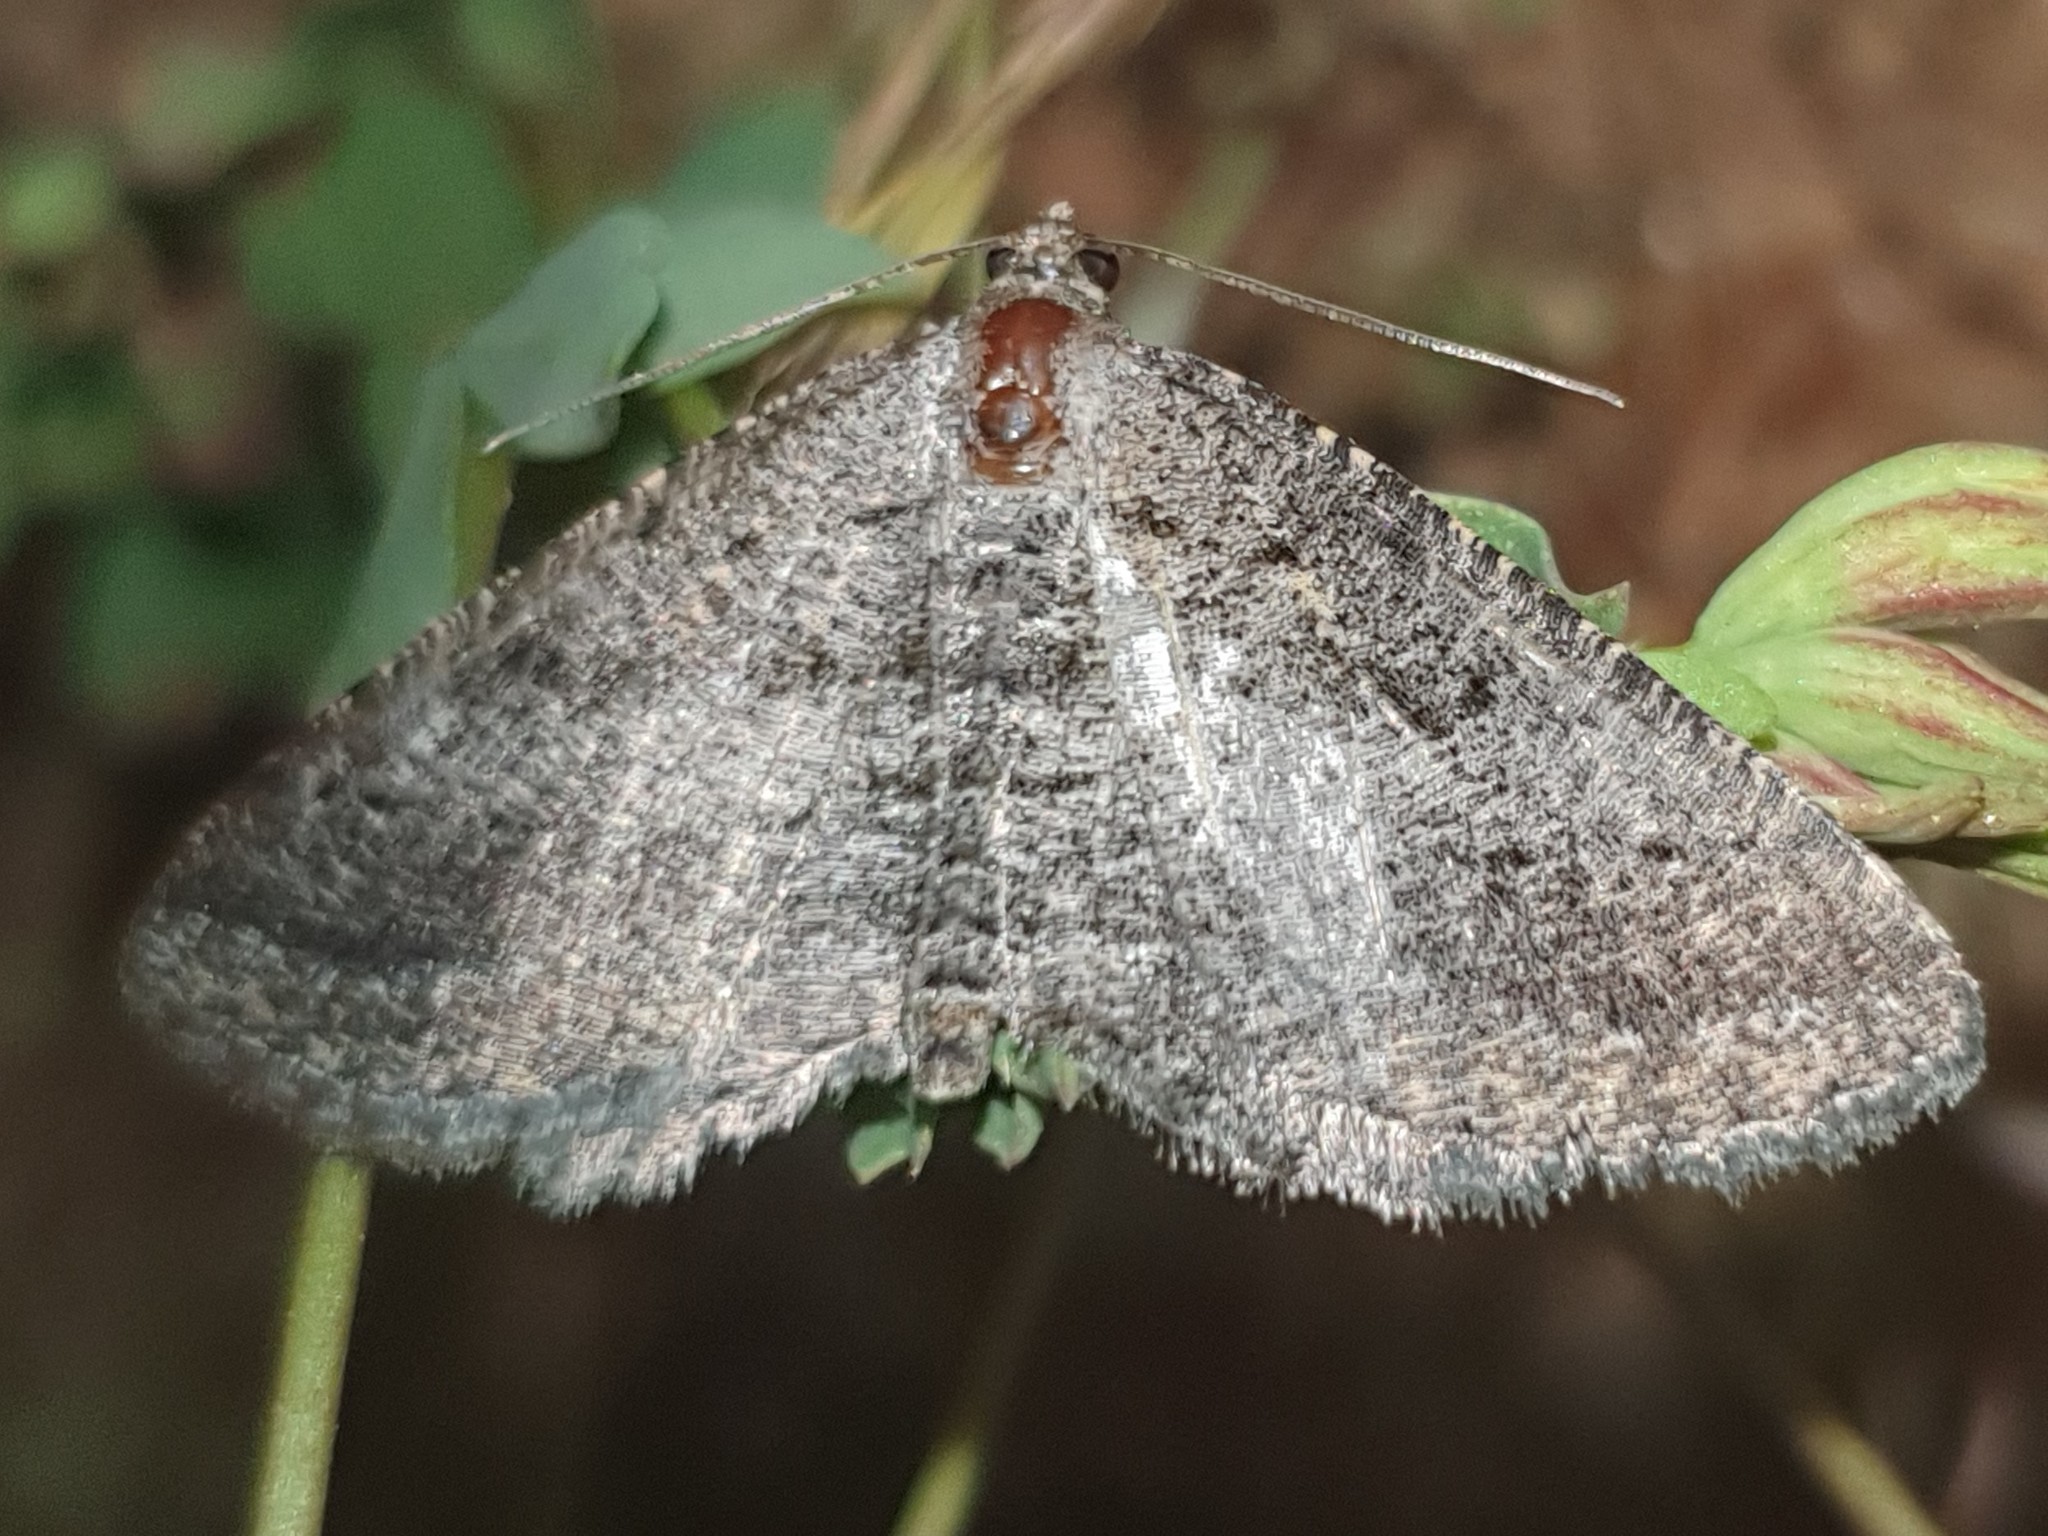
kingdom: Animalia
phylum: Arthropoda
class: Insecta
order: Lepidoptera
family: Geometridae
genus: Rhoptria
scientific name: Rhoptria asperaria
